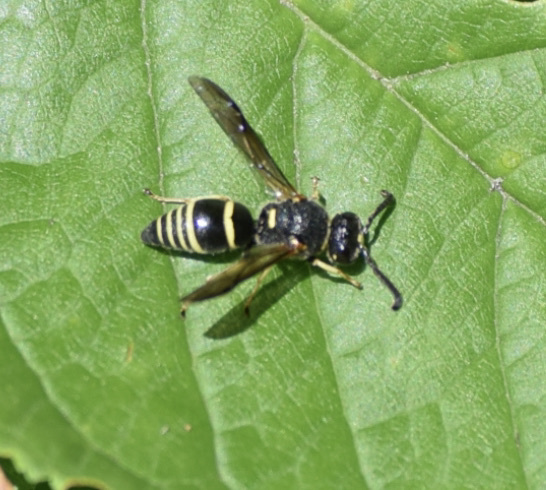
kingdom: Animalia
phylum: Arthropoda
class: Insecta
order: Hymenoptera
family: Eumenidae
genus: Euodynerus
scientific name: Euodynerus foraminatus
